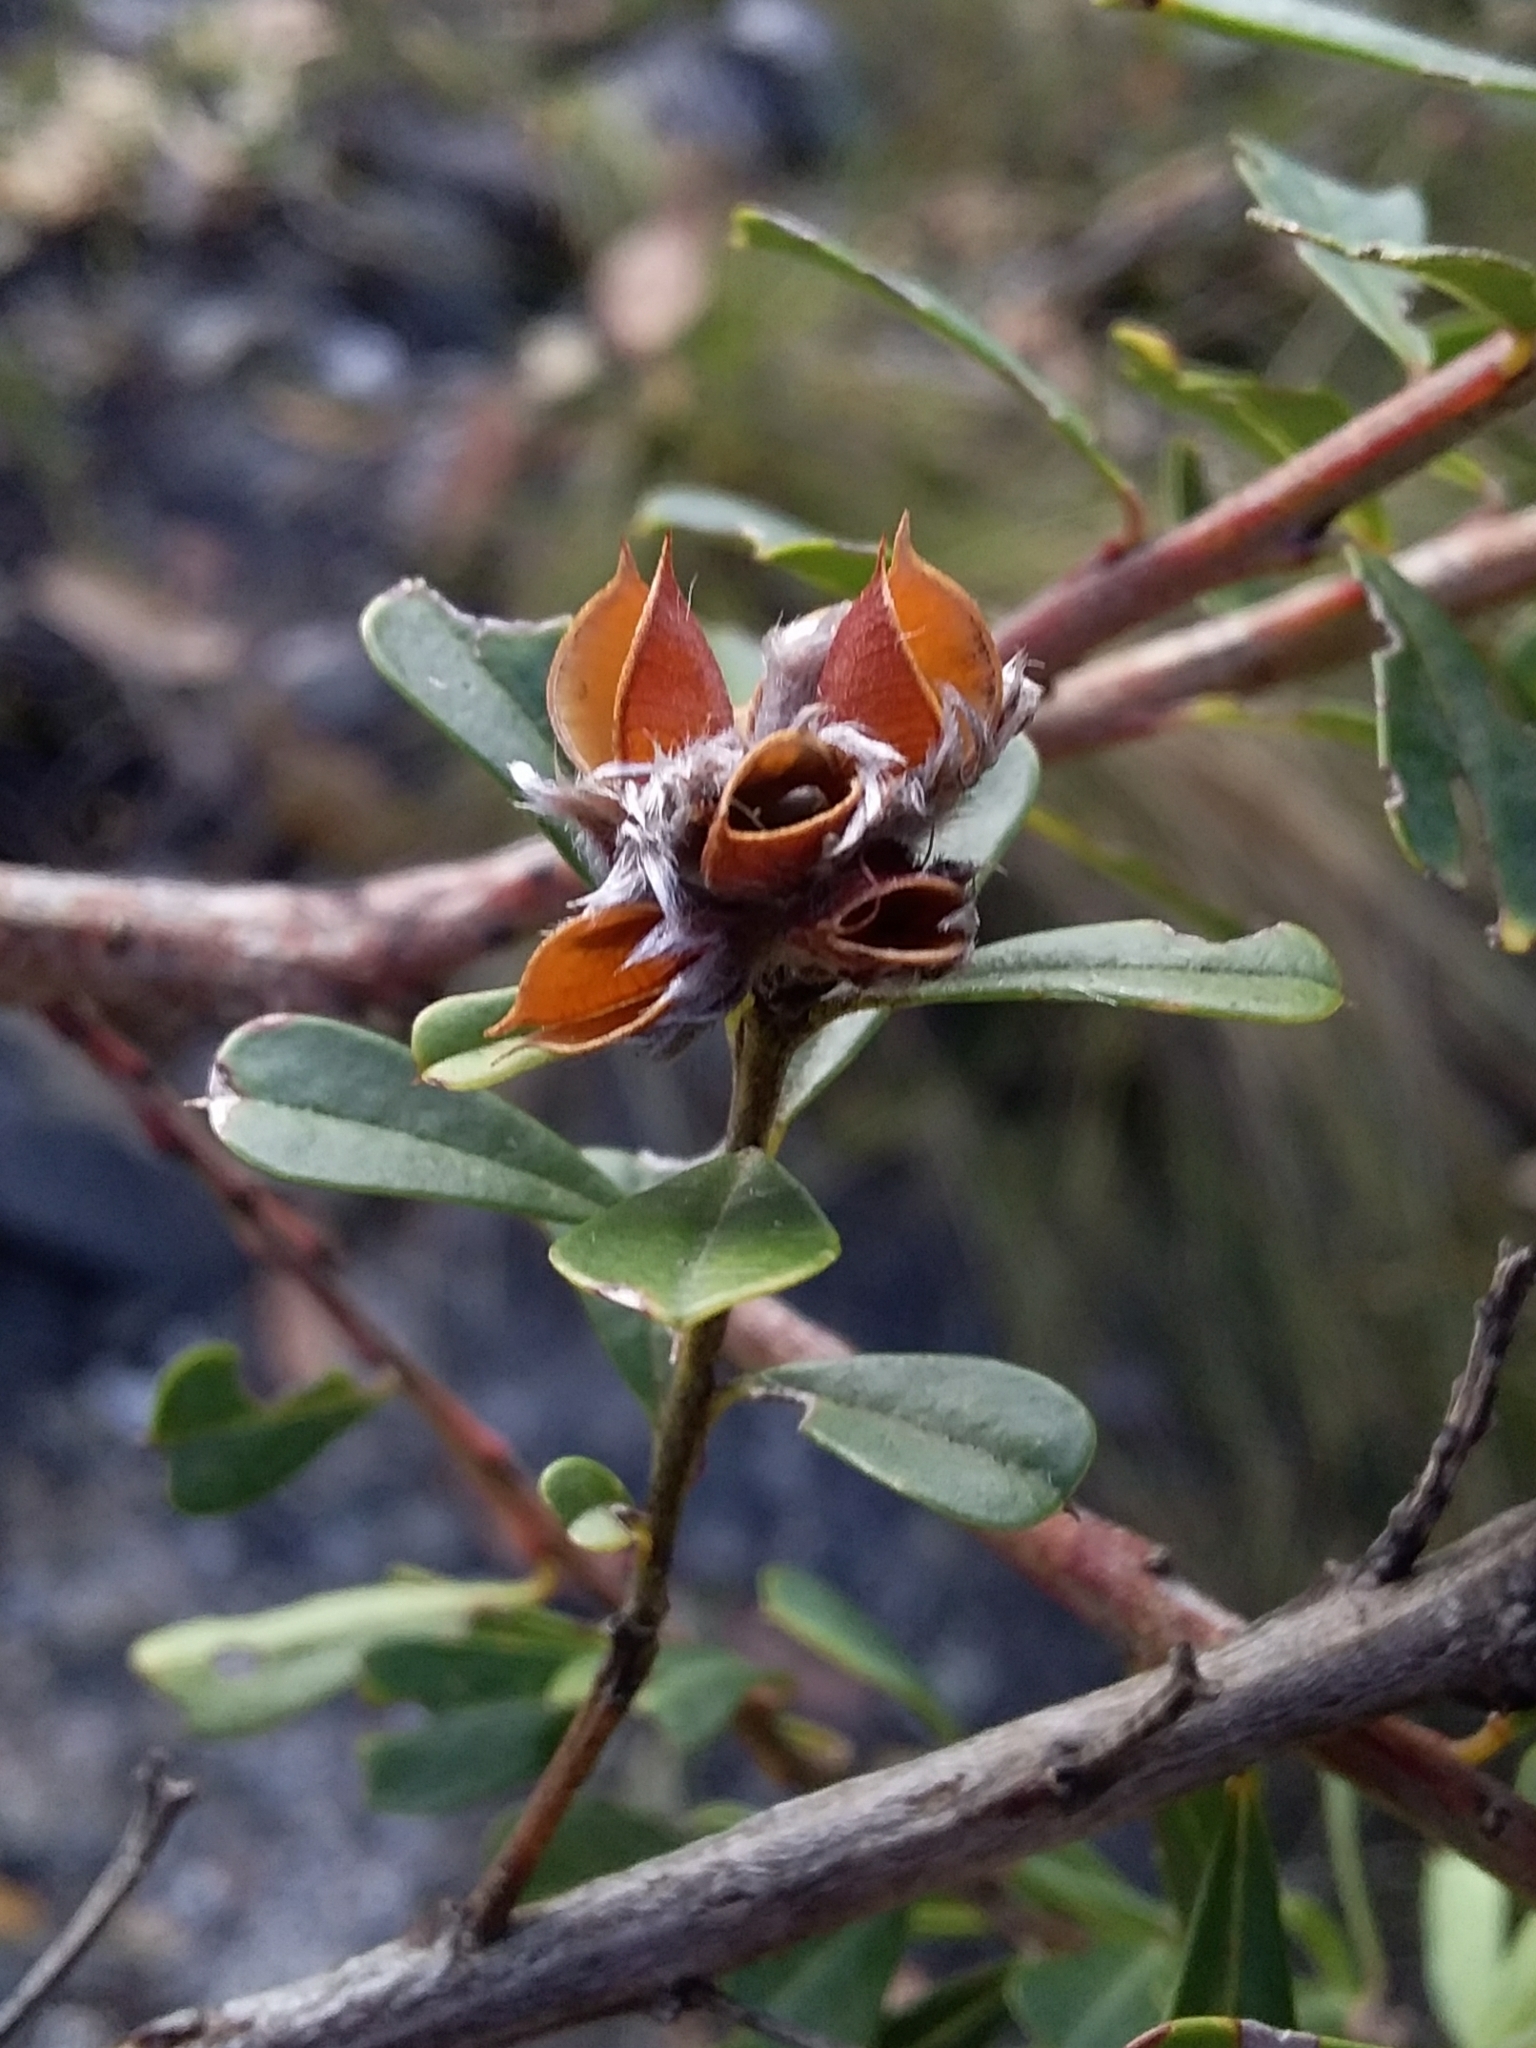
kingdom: Plantae
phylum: Tracheophyta
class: Magnoliopsida
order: Fabales
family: Fabaceae
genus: Pultenaea
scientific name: Pultenaea daphnoides
